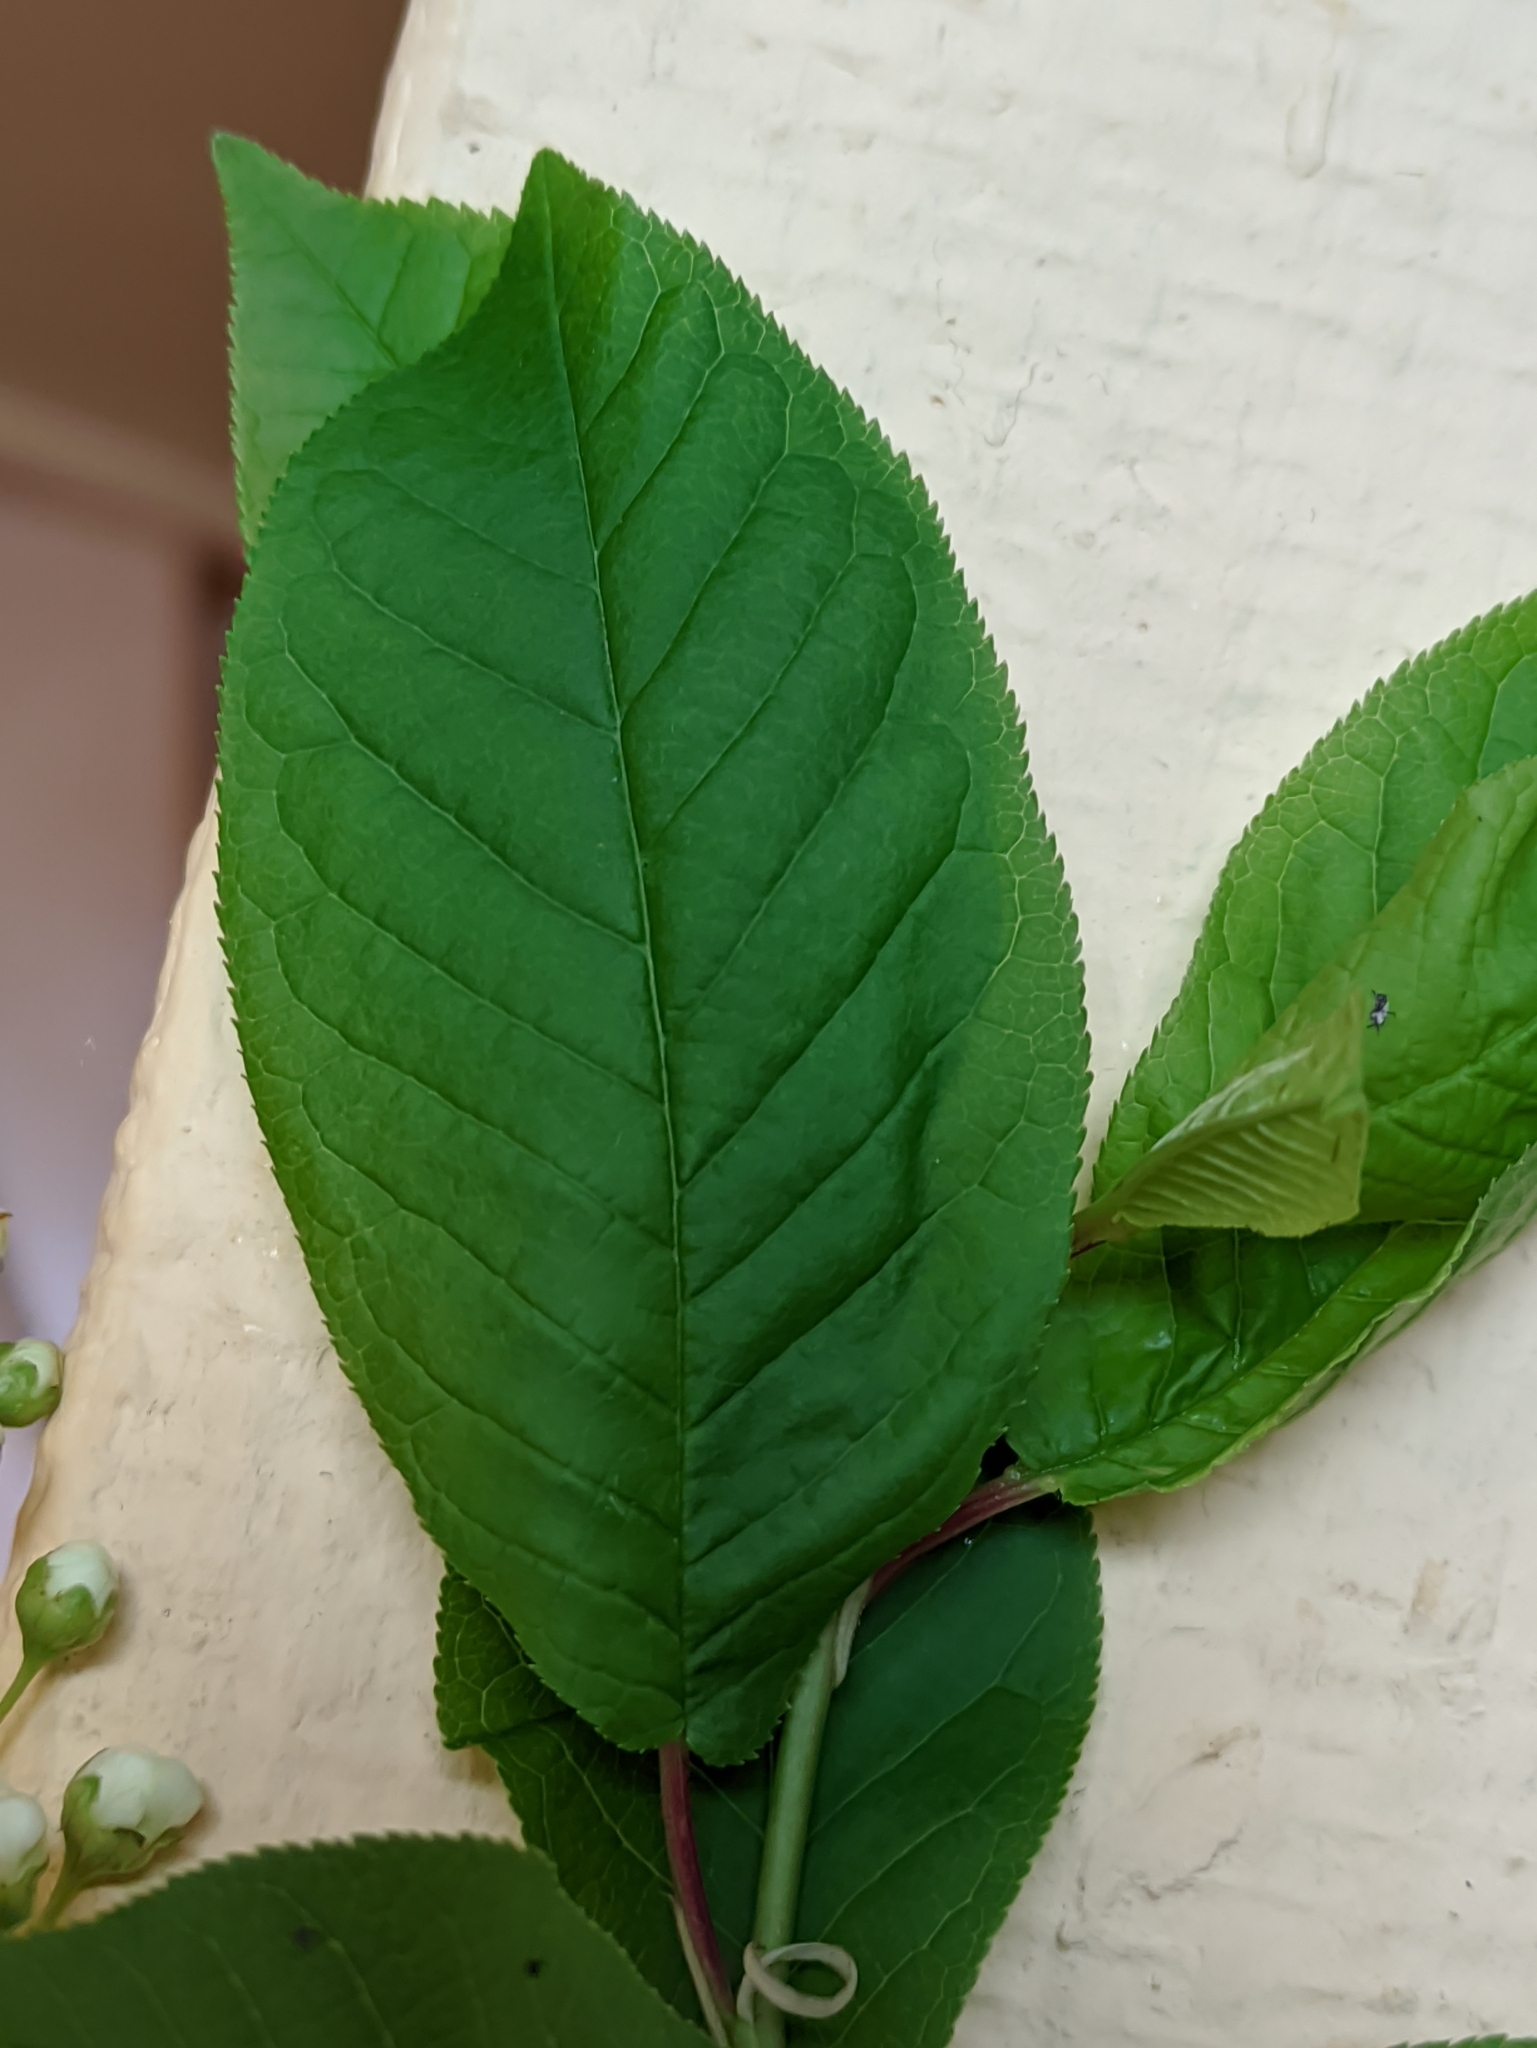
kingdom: Plantae
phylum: Tracheophyta
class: Magnoliopsida
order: Rosales
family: Rosaceae
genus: Prunus
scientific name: Prunus padus
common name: Bird cherry
